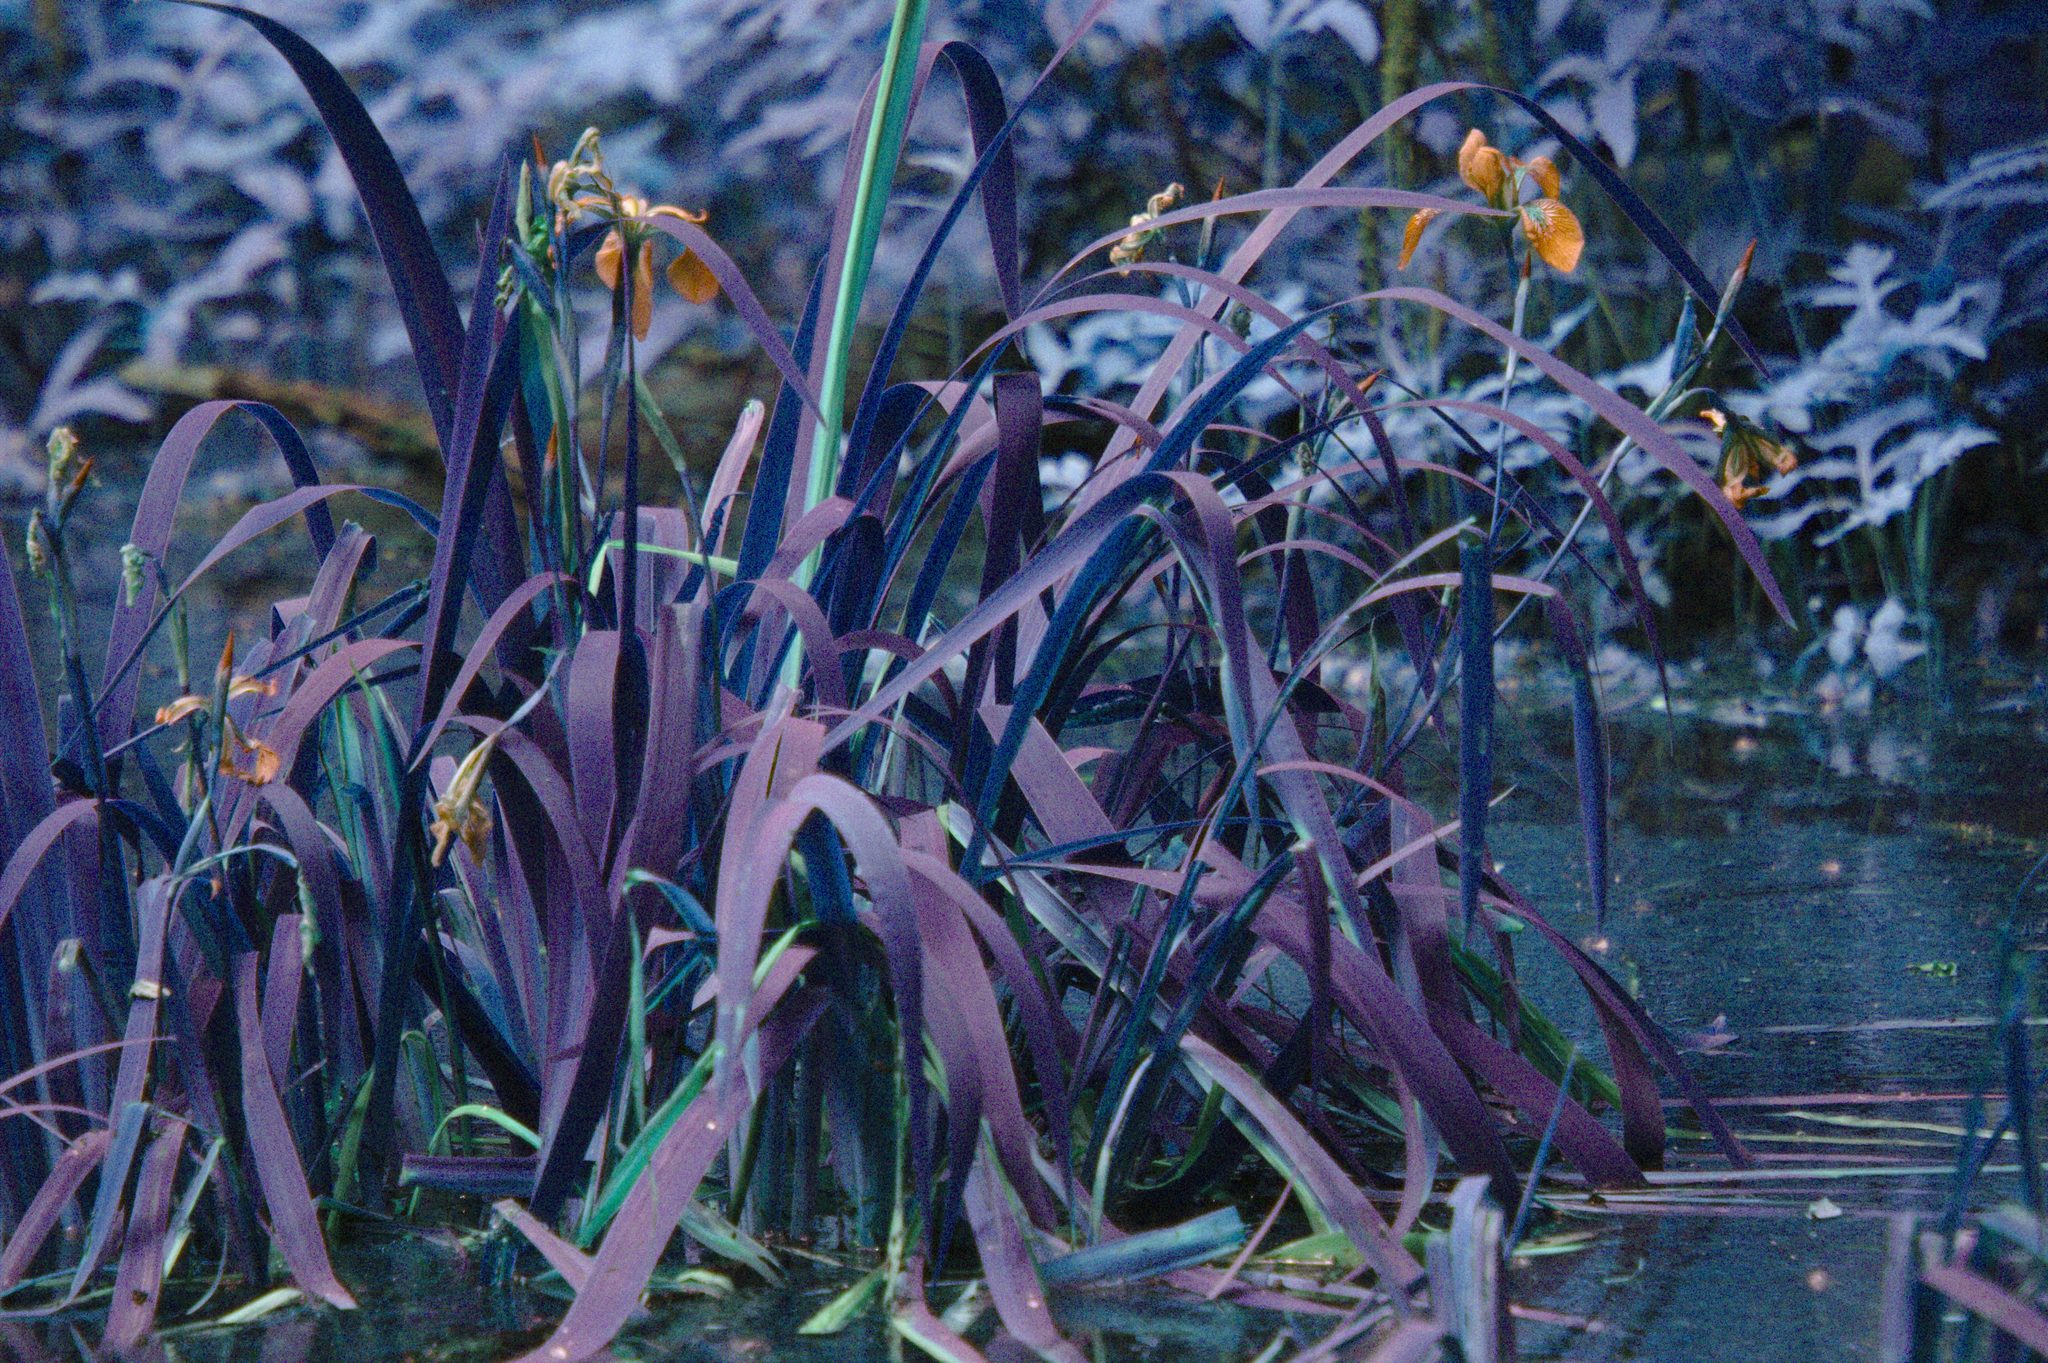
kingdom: Plantae
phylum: Tracheophyta
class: Liliopsida
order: Asparagales
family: Iridaceae
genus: Iris
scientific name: Iris versicolor
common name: Purple iris
